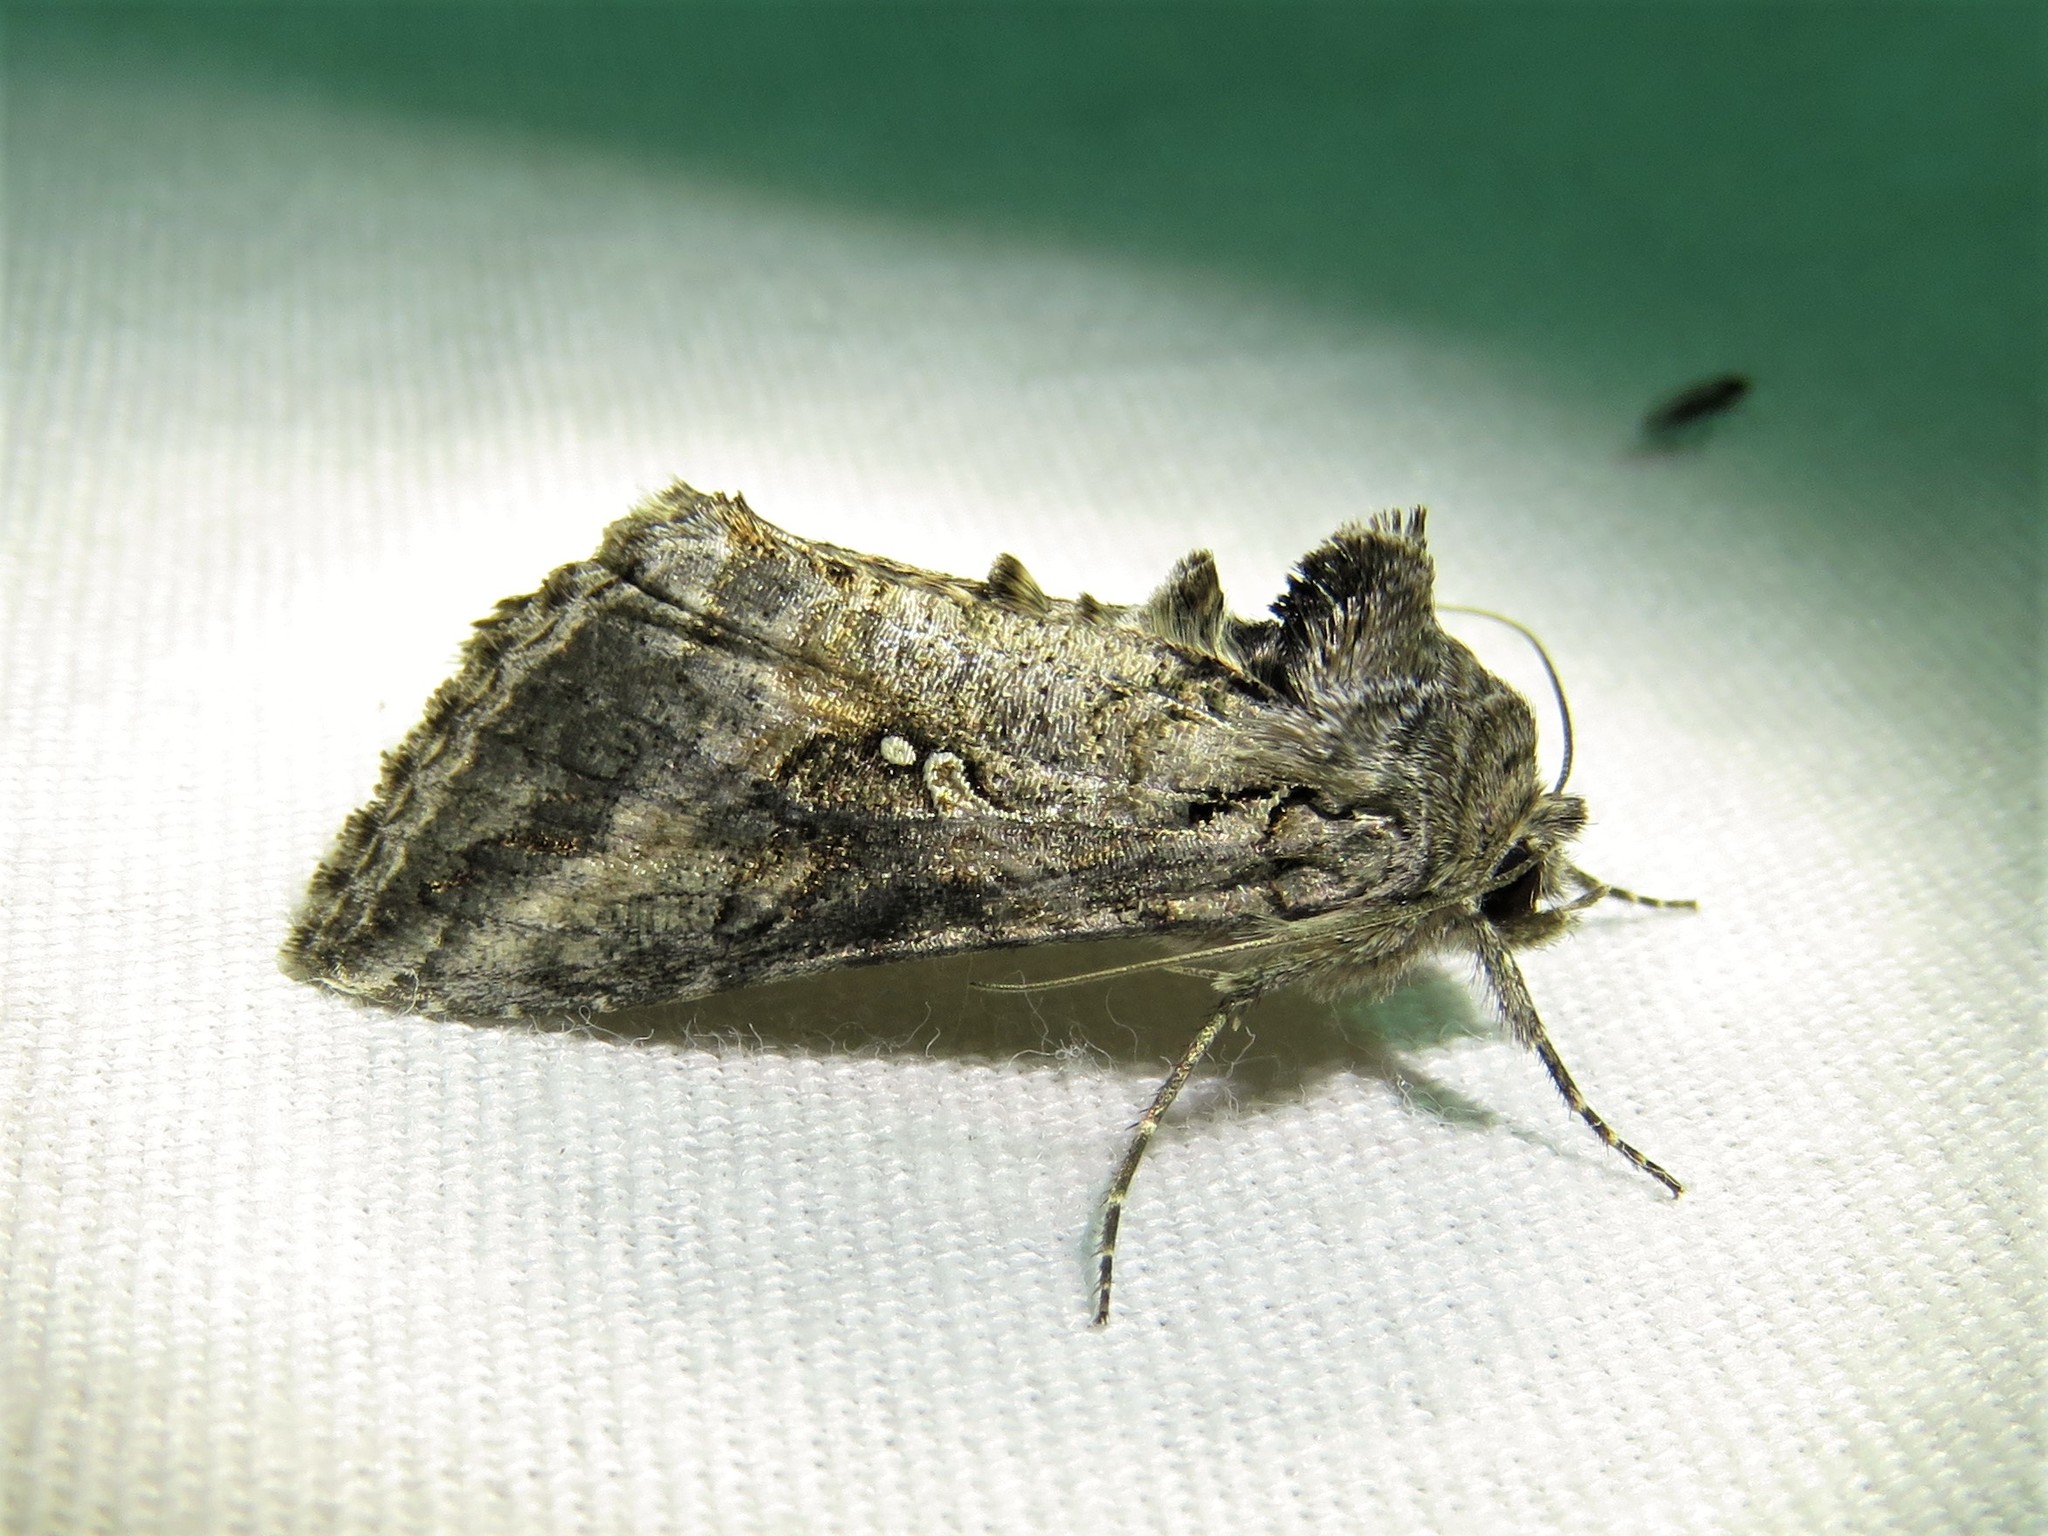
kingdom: Animalia
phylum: Arthropoda
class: Insecta
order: Lepidoptera
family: Noctuidae
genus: Rachiplusia
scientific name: Rachiplusia ou
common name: Gray looper moth
